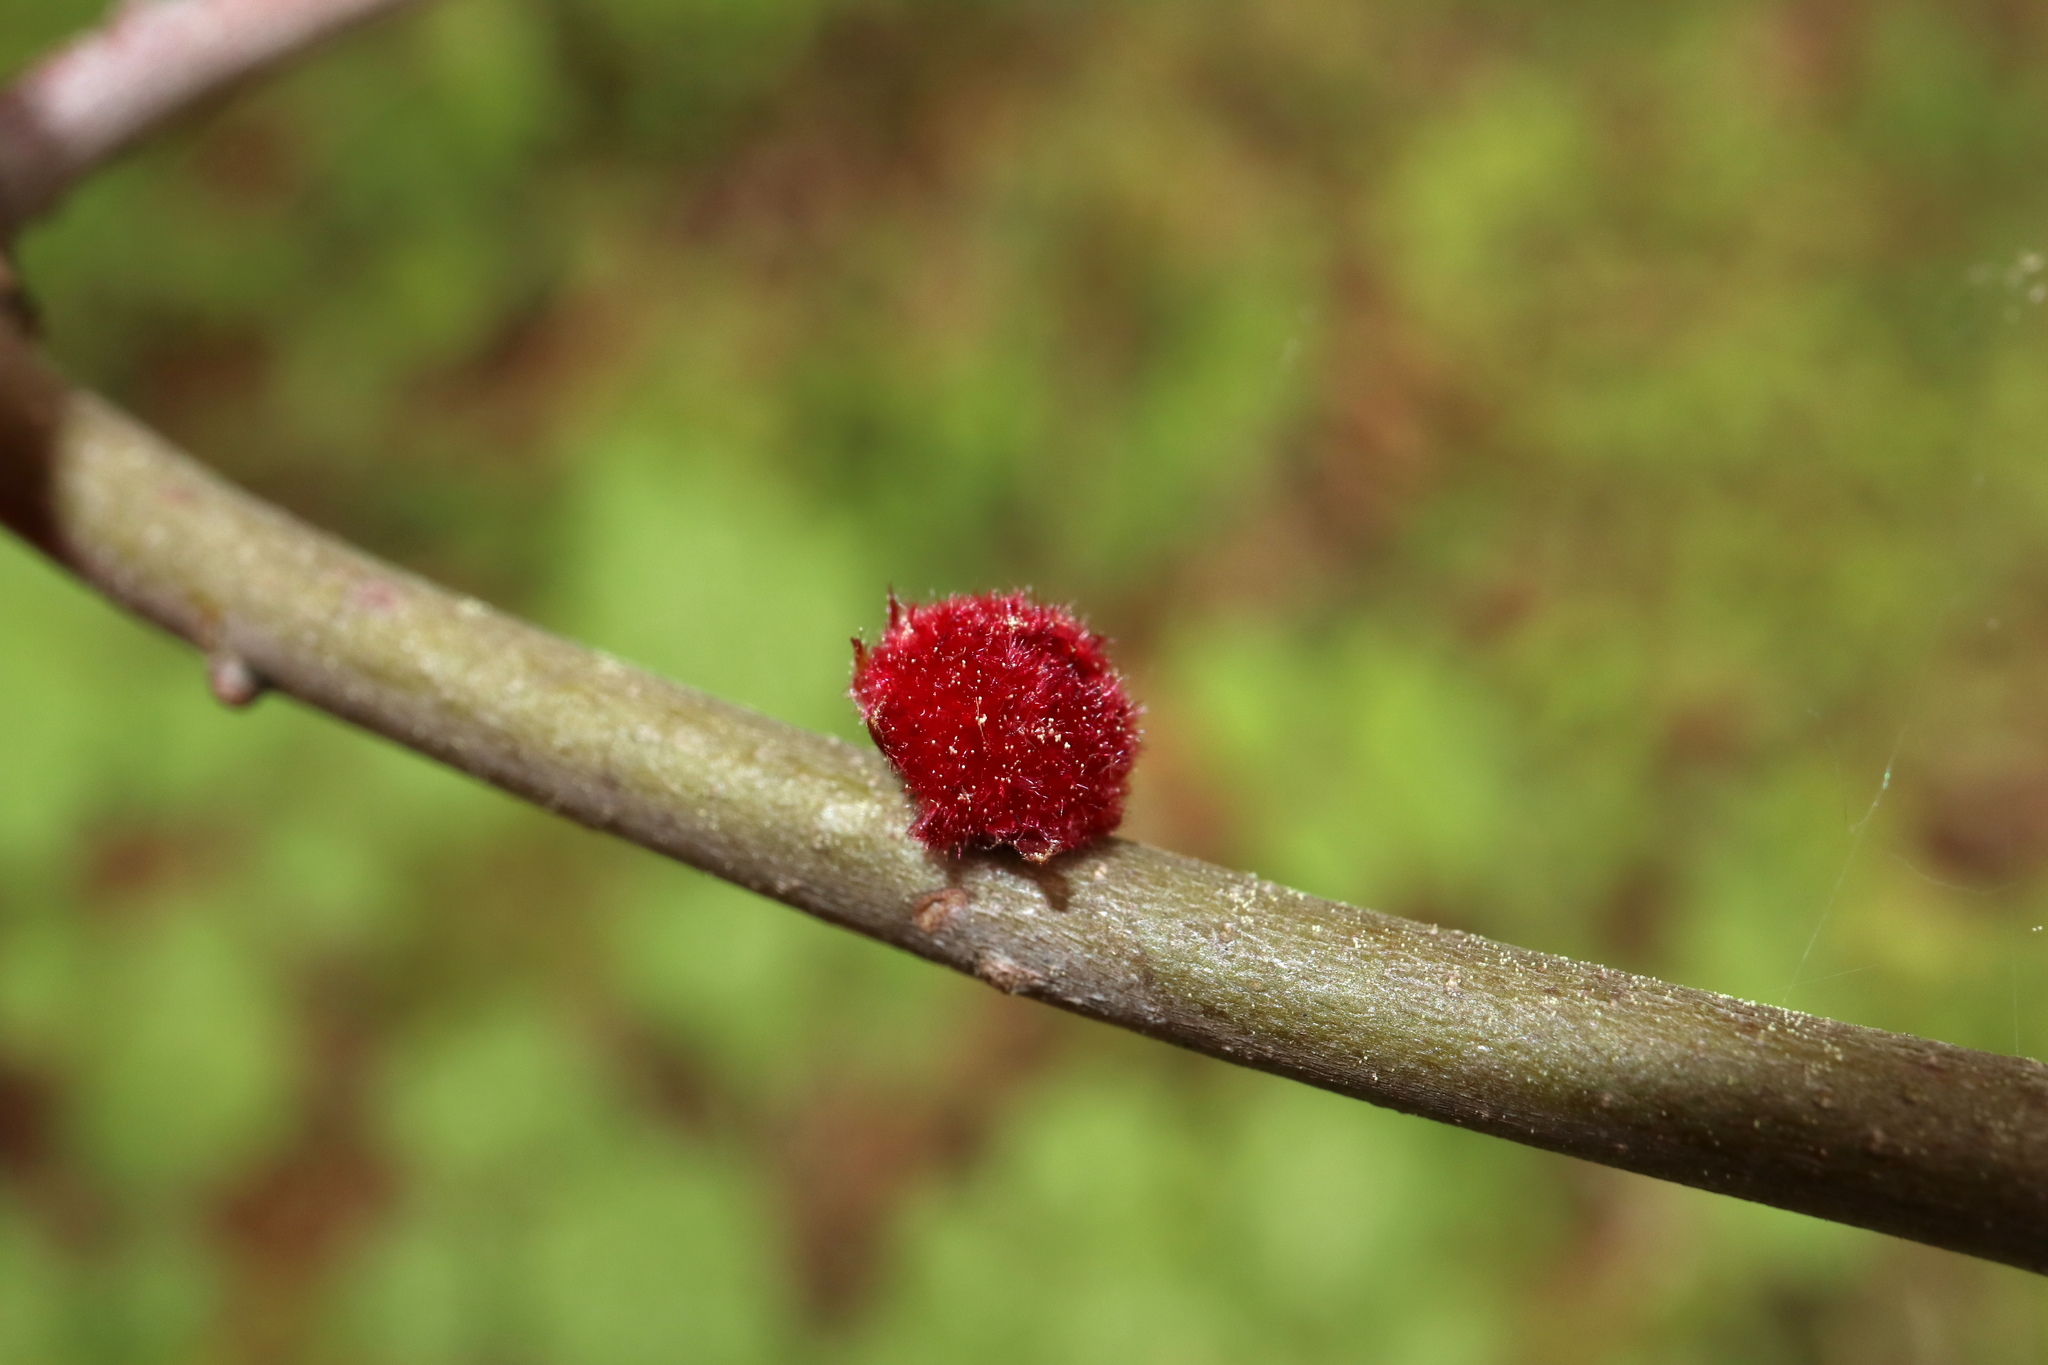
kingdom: Animalia
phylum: Arthropoda
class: Insecta
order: Hymenoptera
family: Cynipidae
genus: Dryocosmus
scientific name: Dryocosmus
